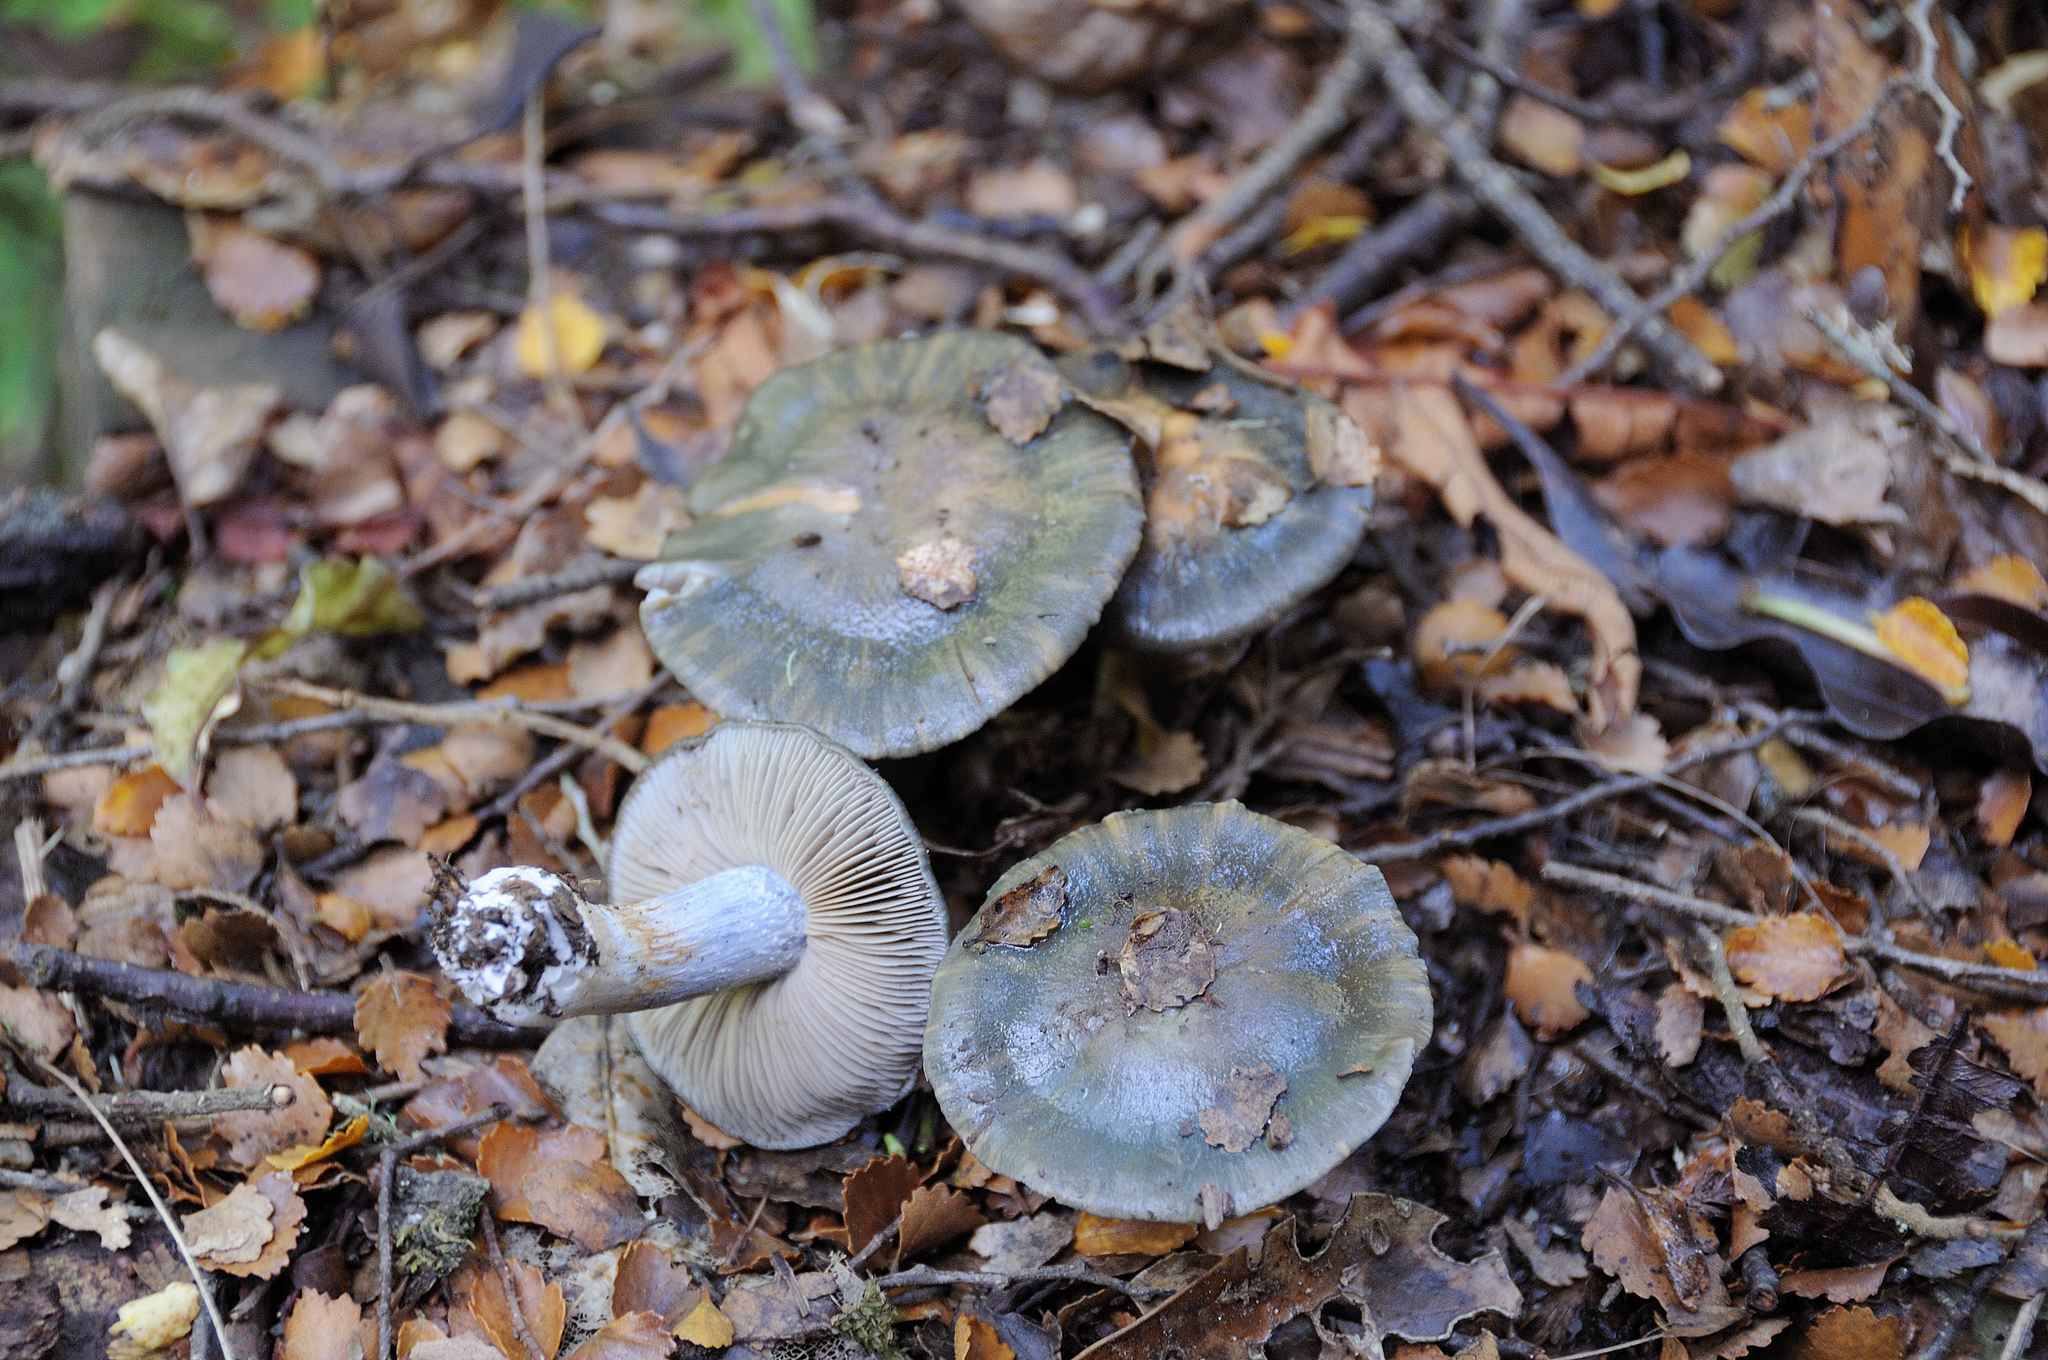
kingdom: Fungi
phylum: Basidiomycota
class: Agaricomycetes
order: Agaricales
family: Cortinariaceae
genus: Thaxterogaster
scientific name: Thaxterogaster turcopes
